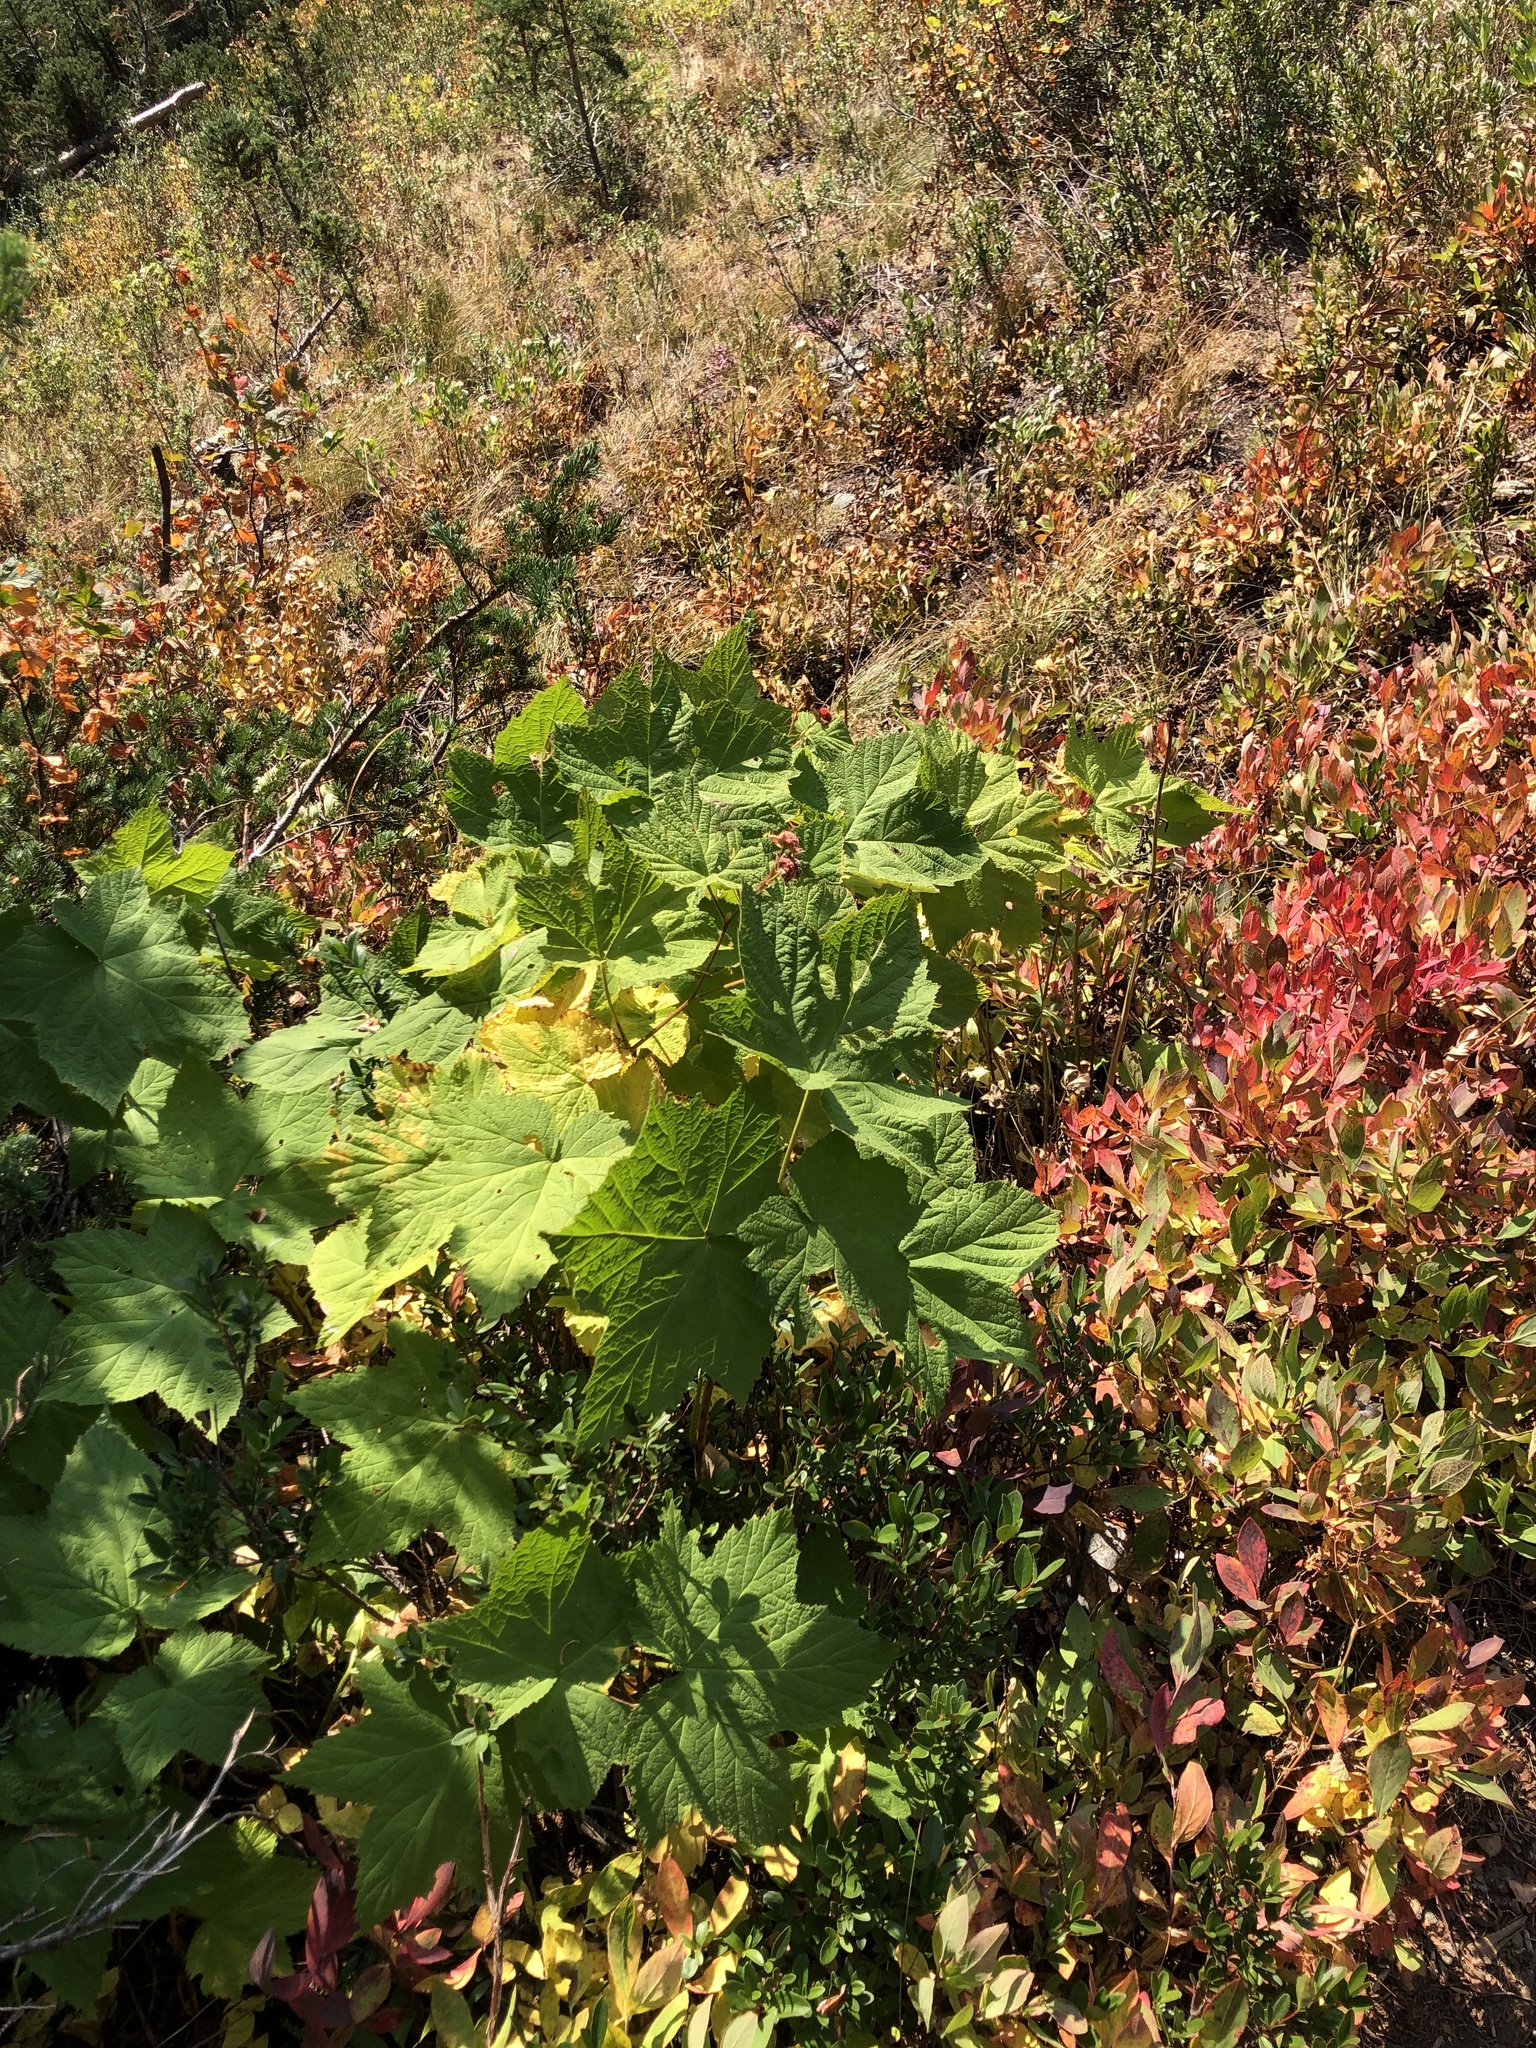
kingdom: Plantae
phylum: Tracheophyta
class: Magnoliopsida
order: Rosales
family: Rosaceae
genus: Rubus
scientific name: Rubus parviflorus
